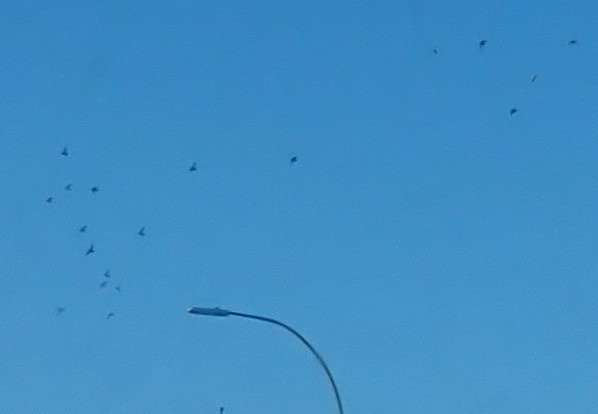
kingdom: Animalia
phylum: Chordata
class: Aves
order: Columbiformes
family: Columbidae
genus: Columba
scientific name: Columba livia
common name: Rock pigeon
